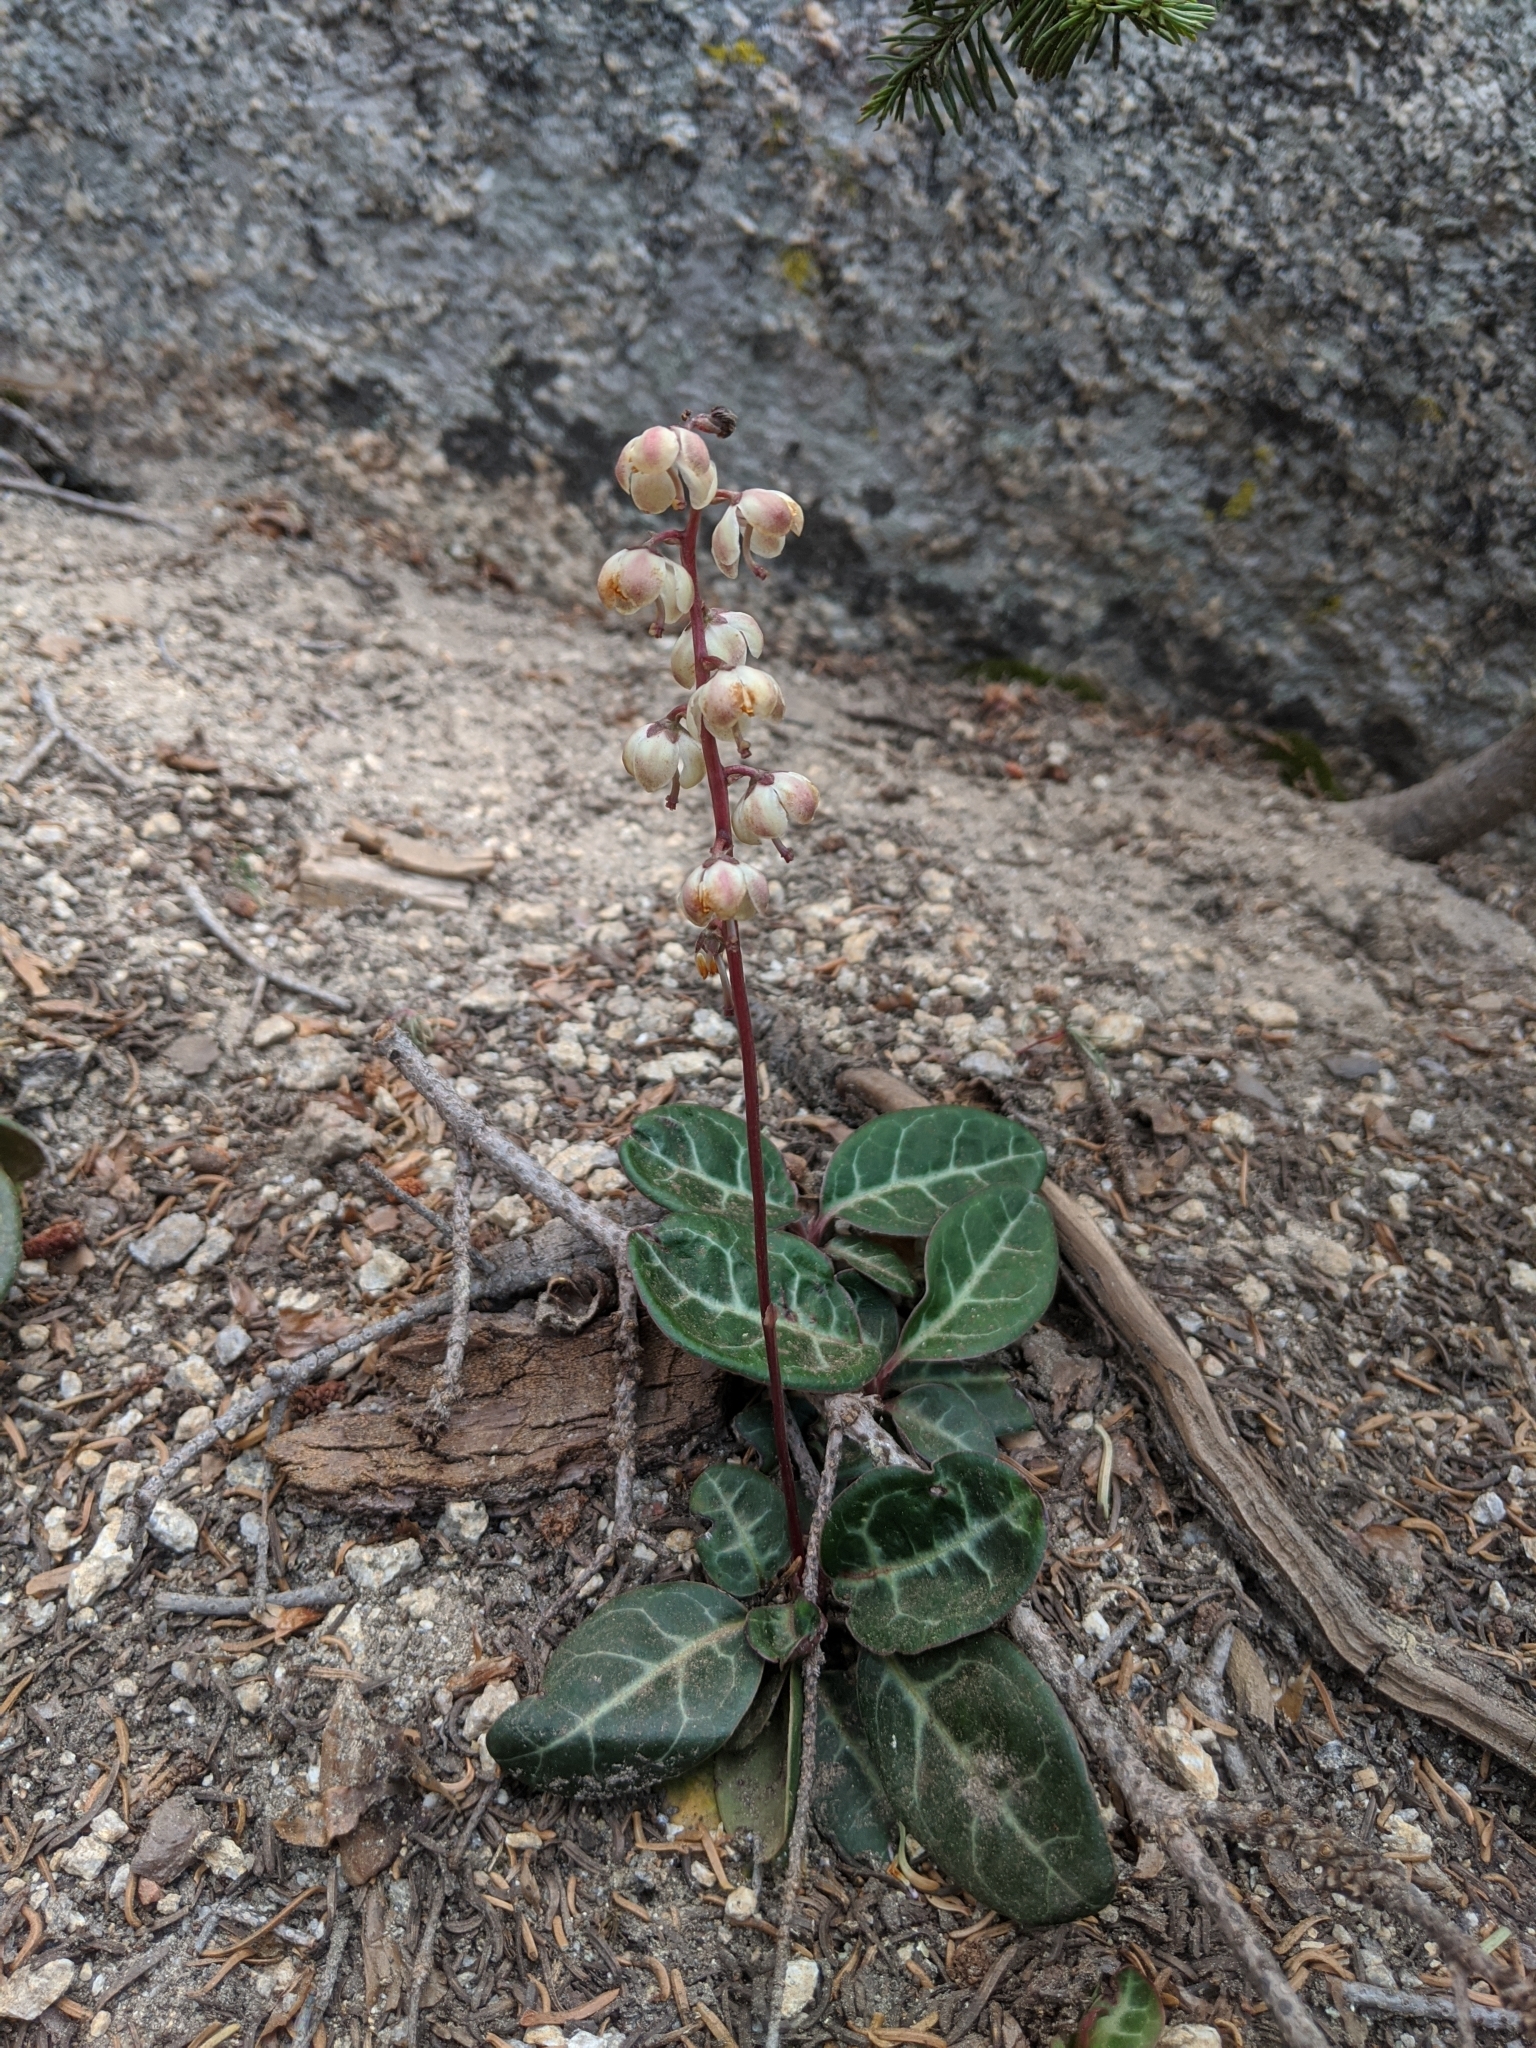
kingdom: Plantae
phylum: Tracheophyta
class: Magnoliopsida
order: Ericales
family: Ericaceae
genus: Pyrola
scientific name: Pyrola picta
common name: White-vein wintergreen
